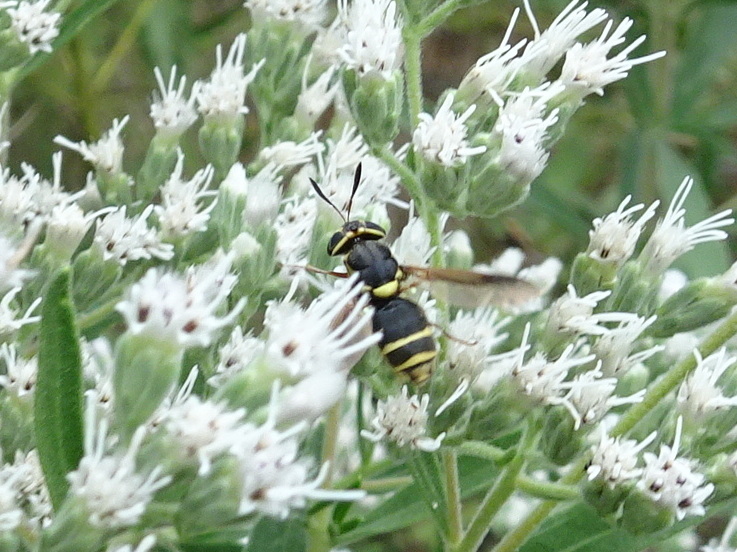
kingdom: Animalia
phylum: Arthropoda
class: Insecta
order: Diptera
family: Stratiomyidae
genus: Hoplitimyia
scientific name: Hoplitimyia constans
